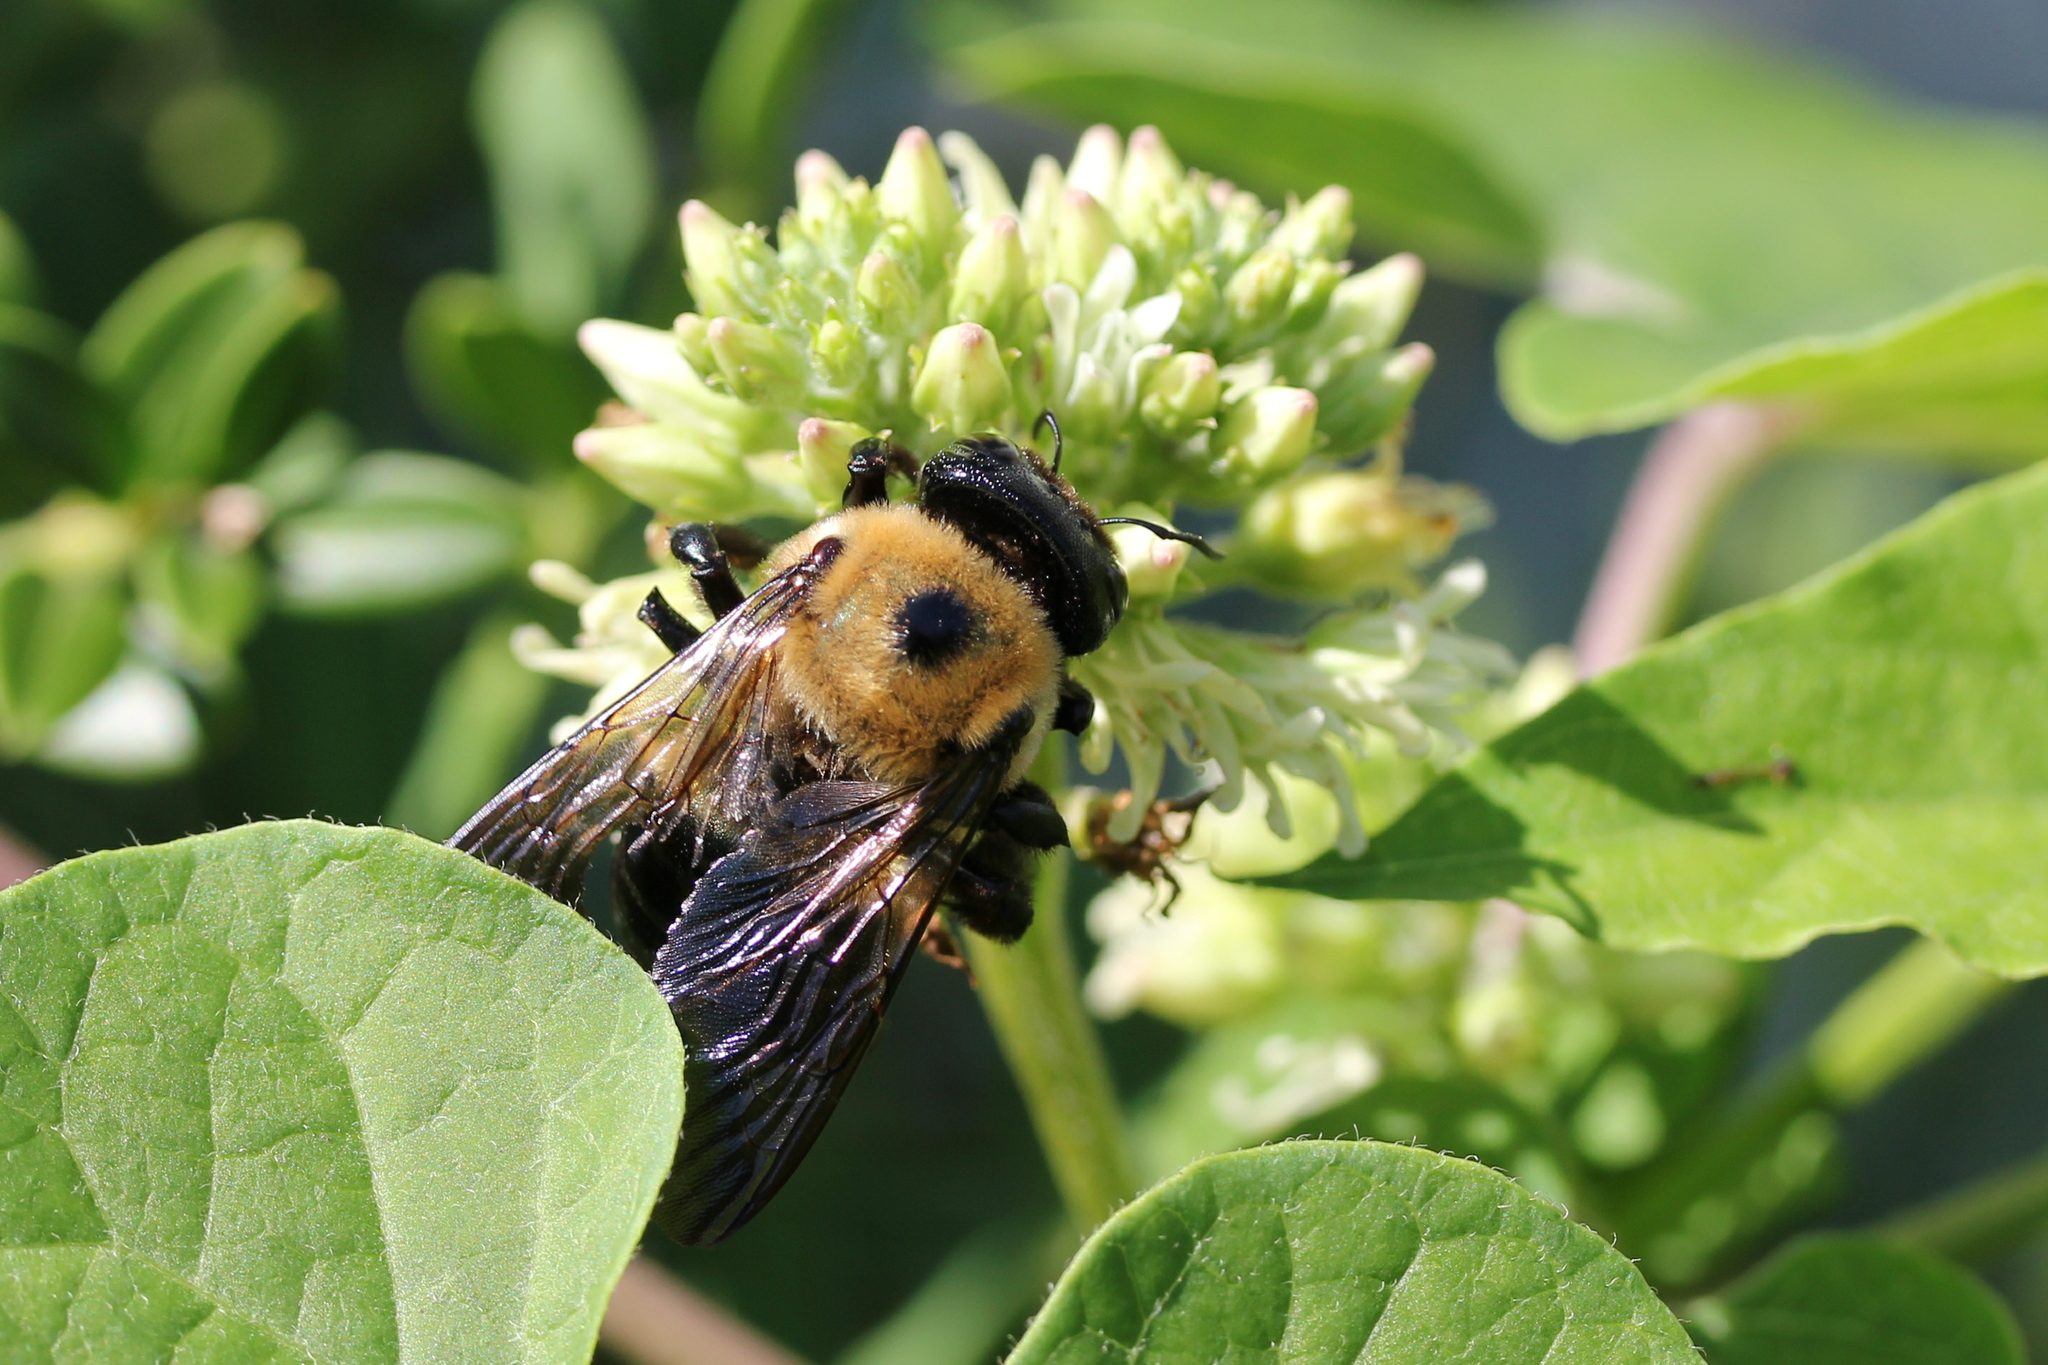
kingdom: Animalia
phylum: Arthropoda
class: Insecta
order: Hymenoptera
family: Apidae
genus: Xylocopa
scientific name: Xylocopa virginica
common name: Carpenter bee
